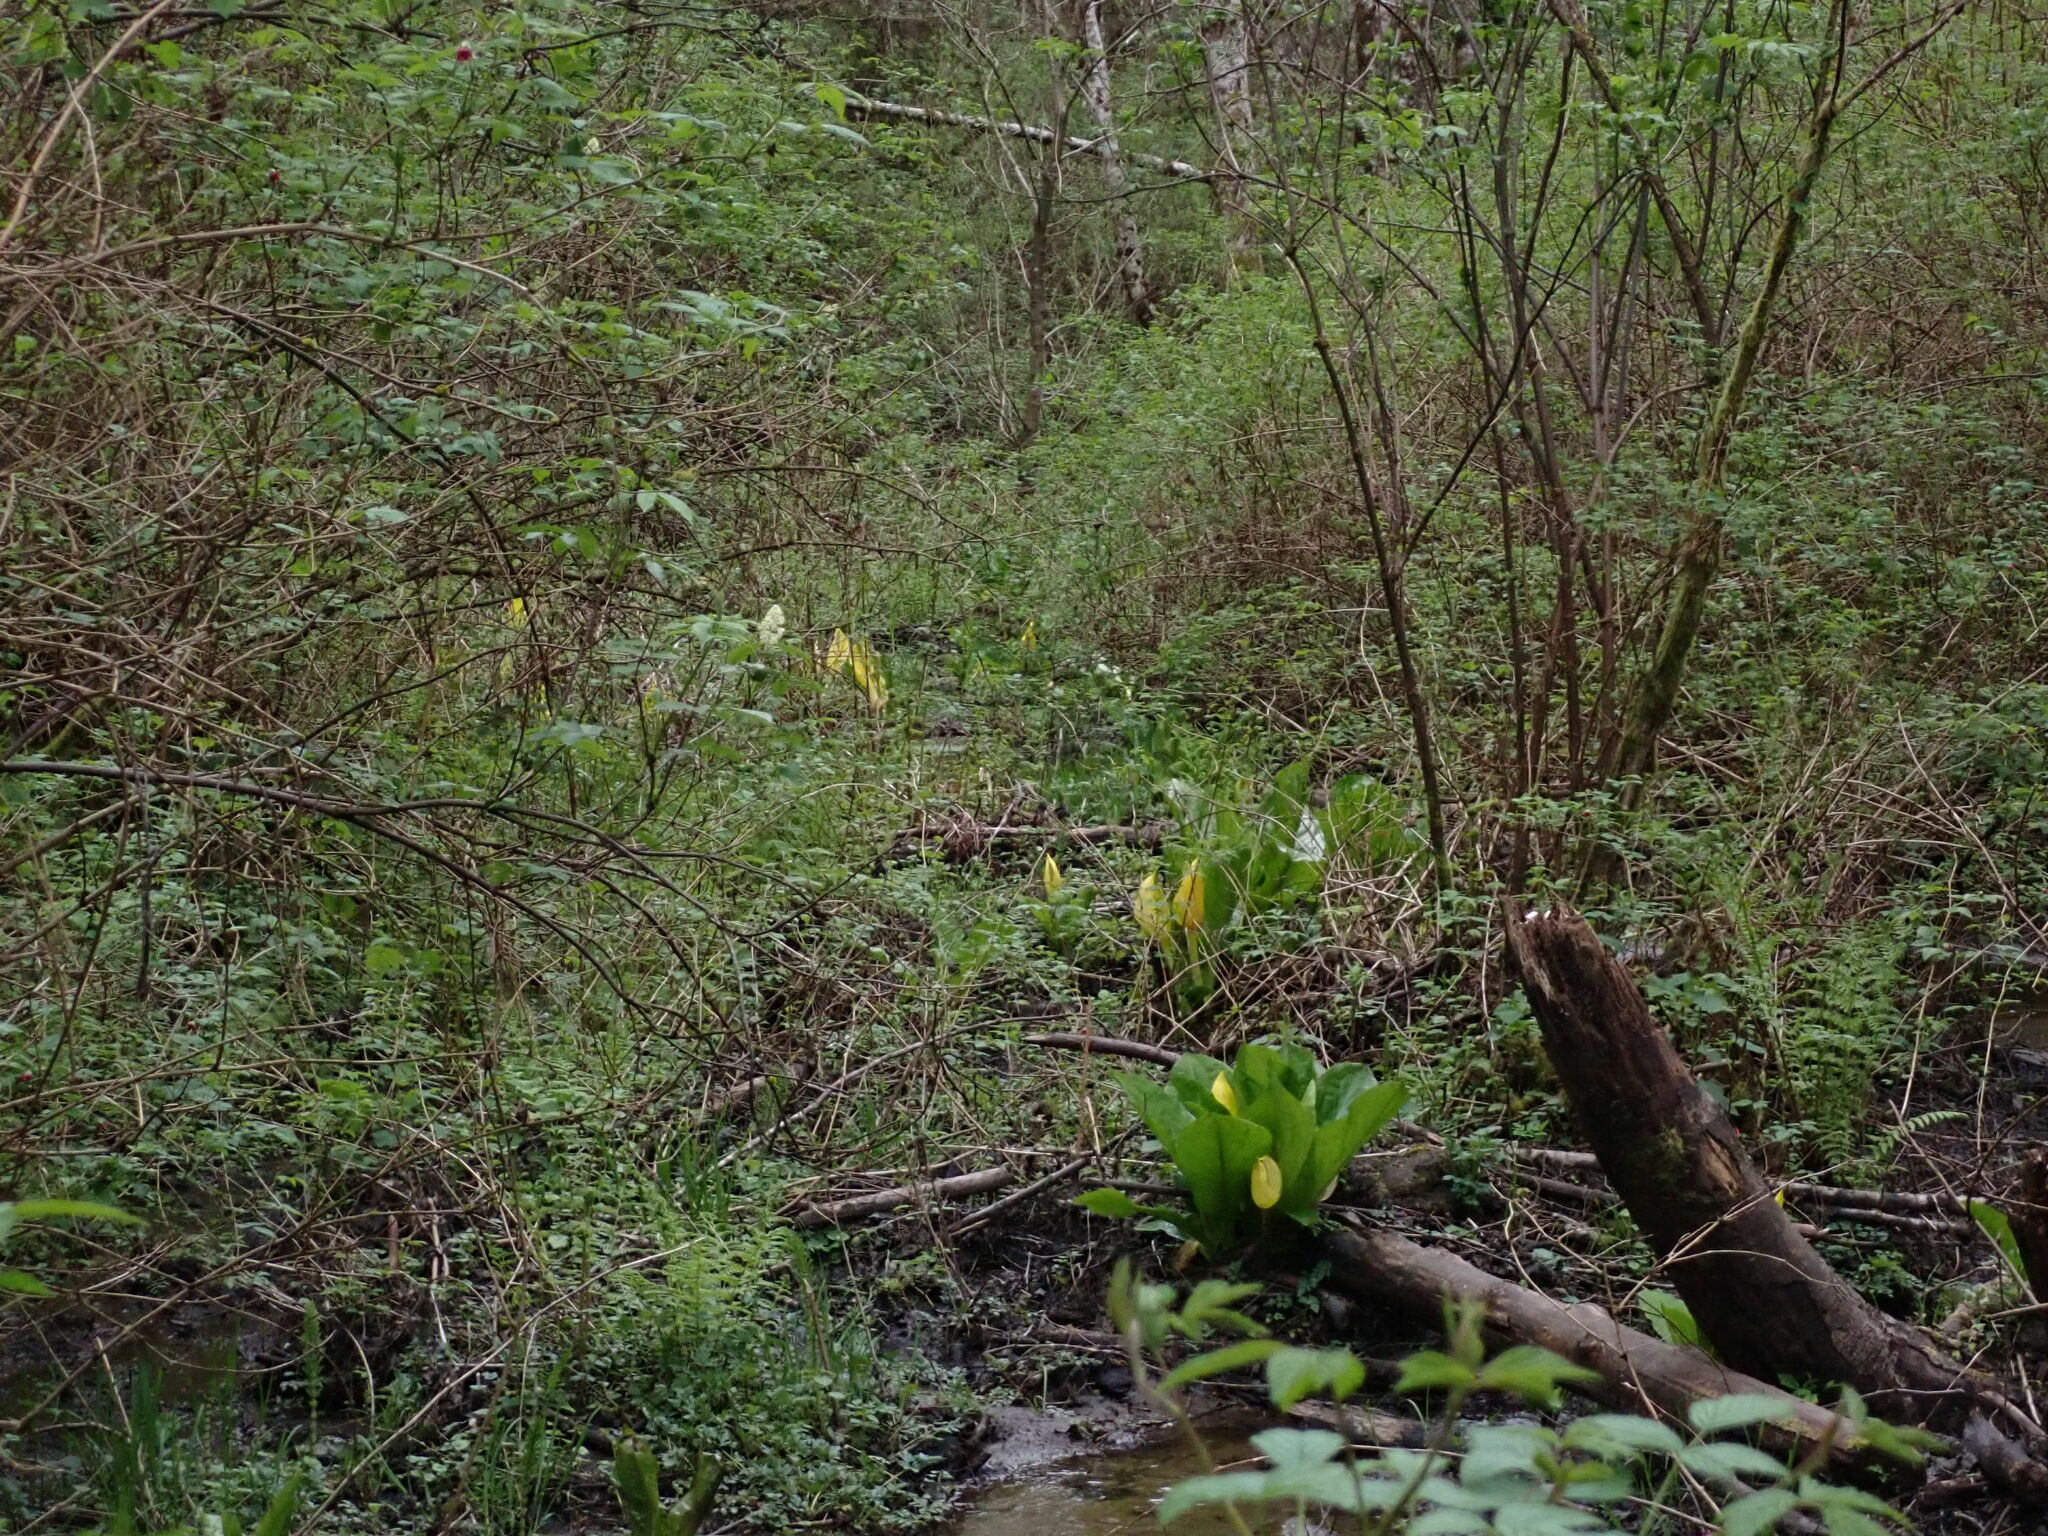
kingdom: Plantae
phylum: Tracheophyta
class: Liliopsida
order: Alismatales
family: Araceae
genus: Lysichiton
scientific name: Lysichiton americanus
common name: American skunk cabbage
